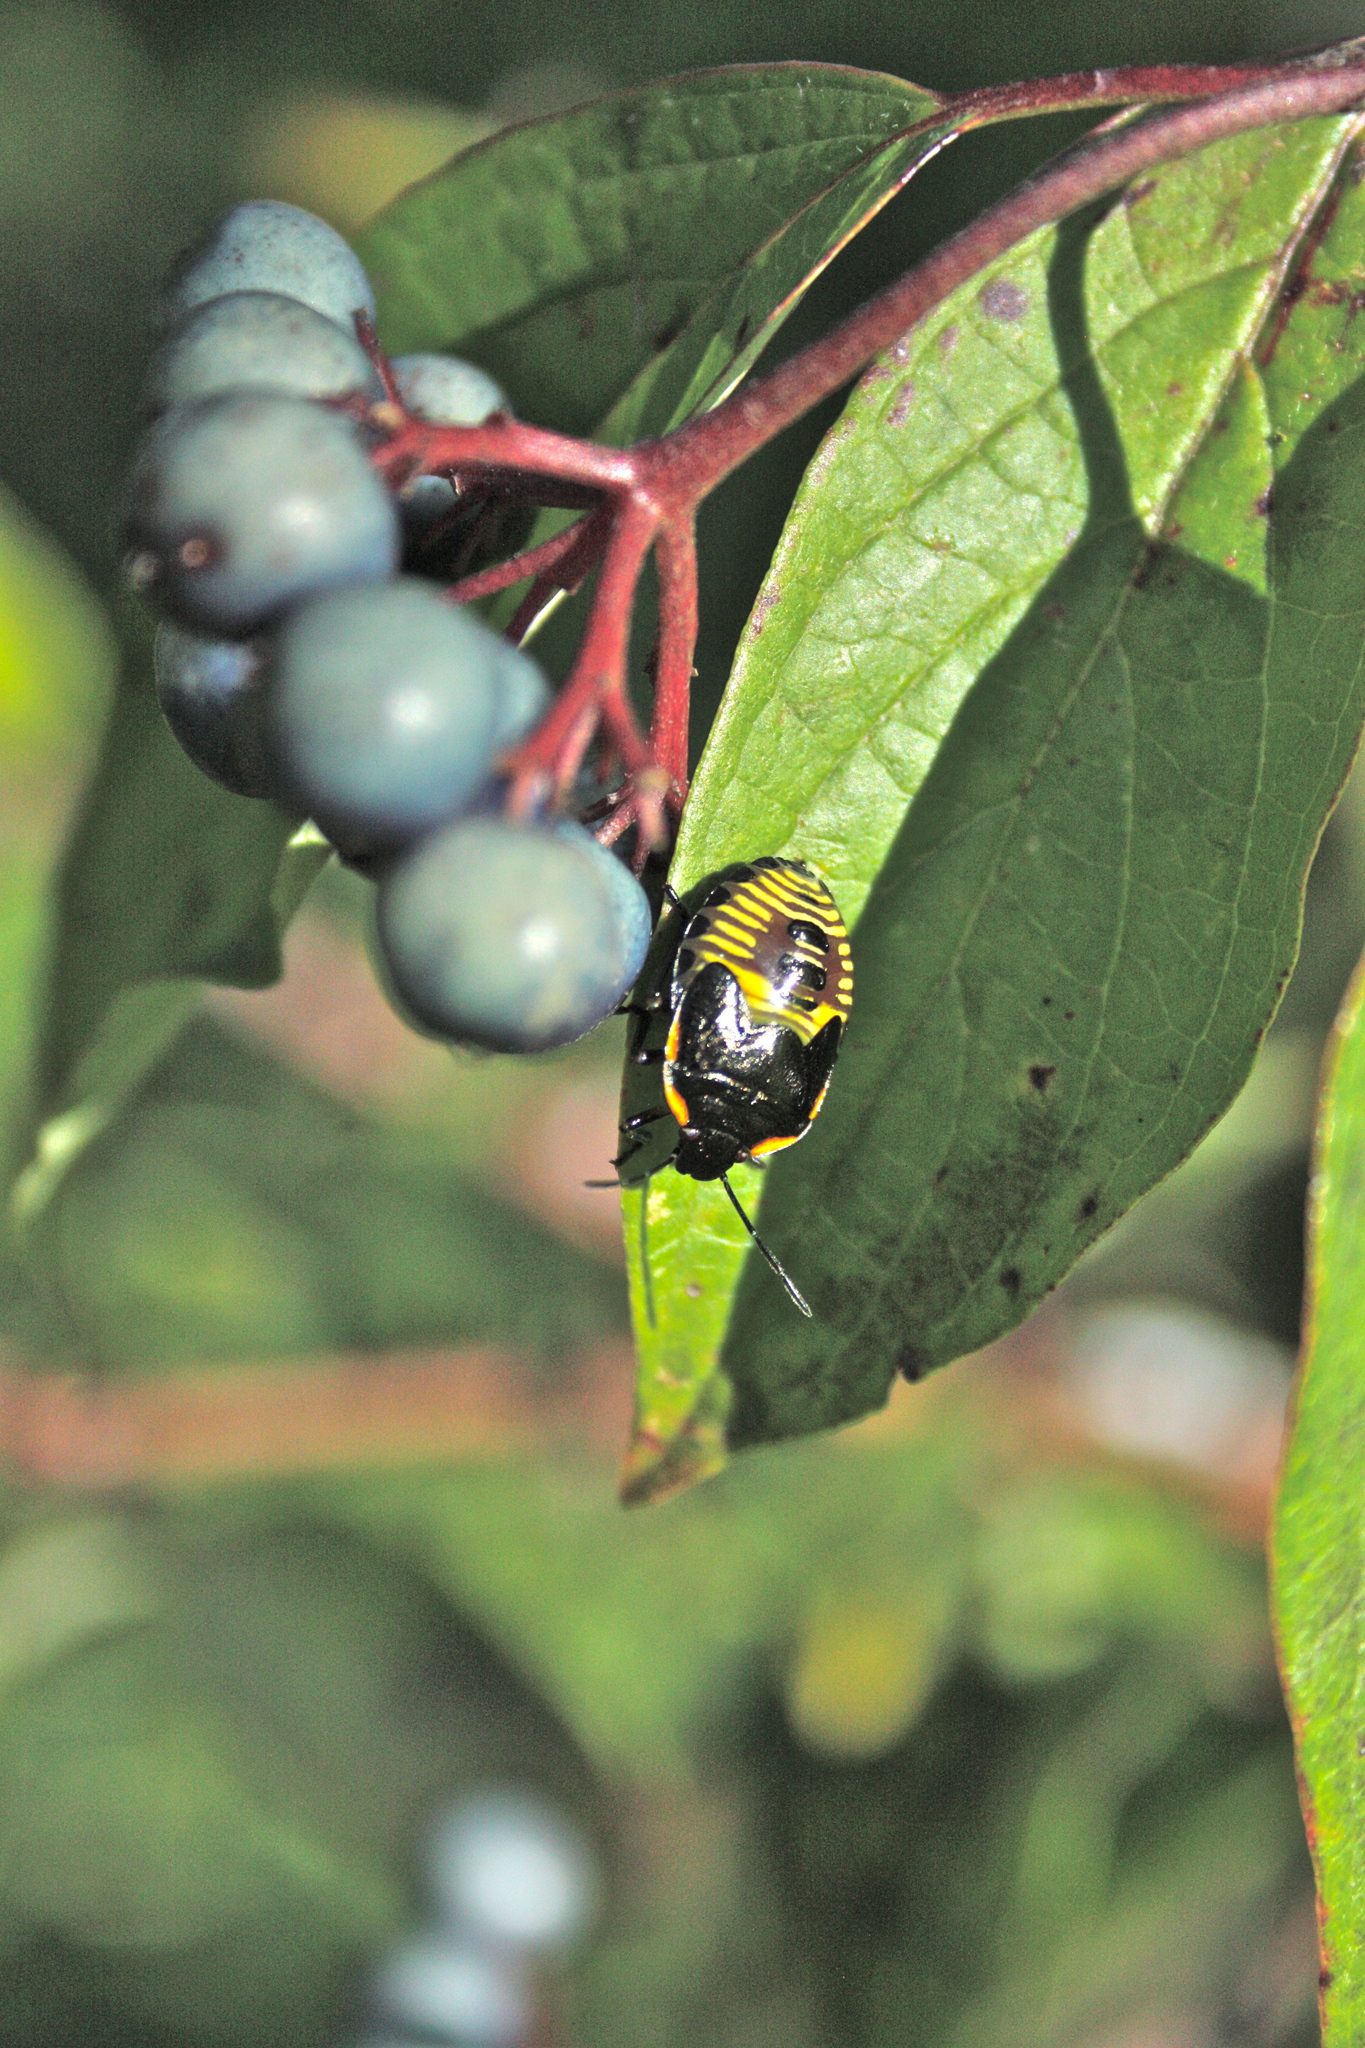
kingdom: Animalia
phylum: Arthropoda
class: Insecta
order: Hemiptera
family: Pentatomidae
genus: Chinavia
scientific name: Chinavia hilaris
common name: Green stink bug
